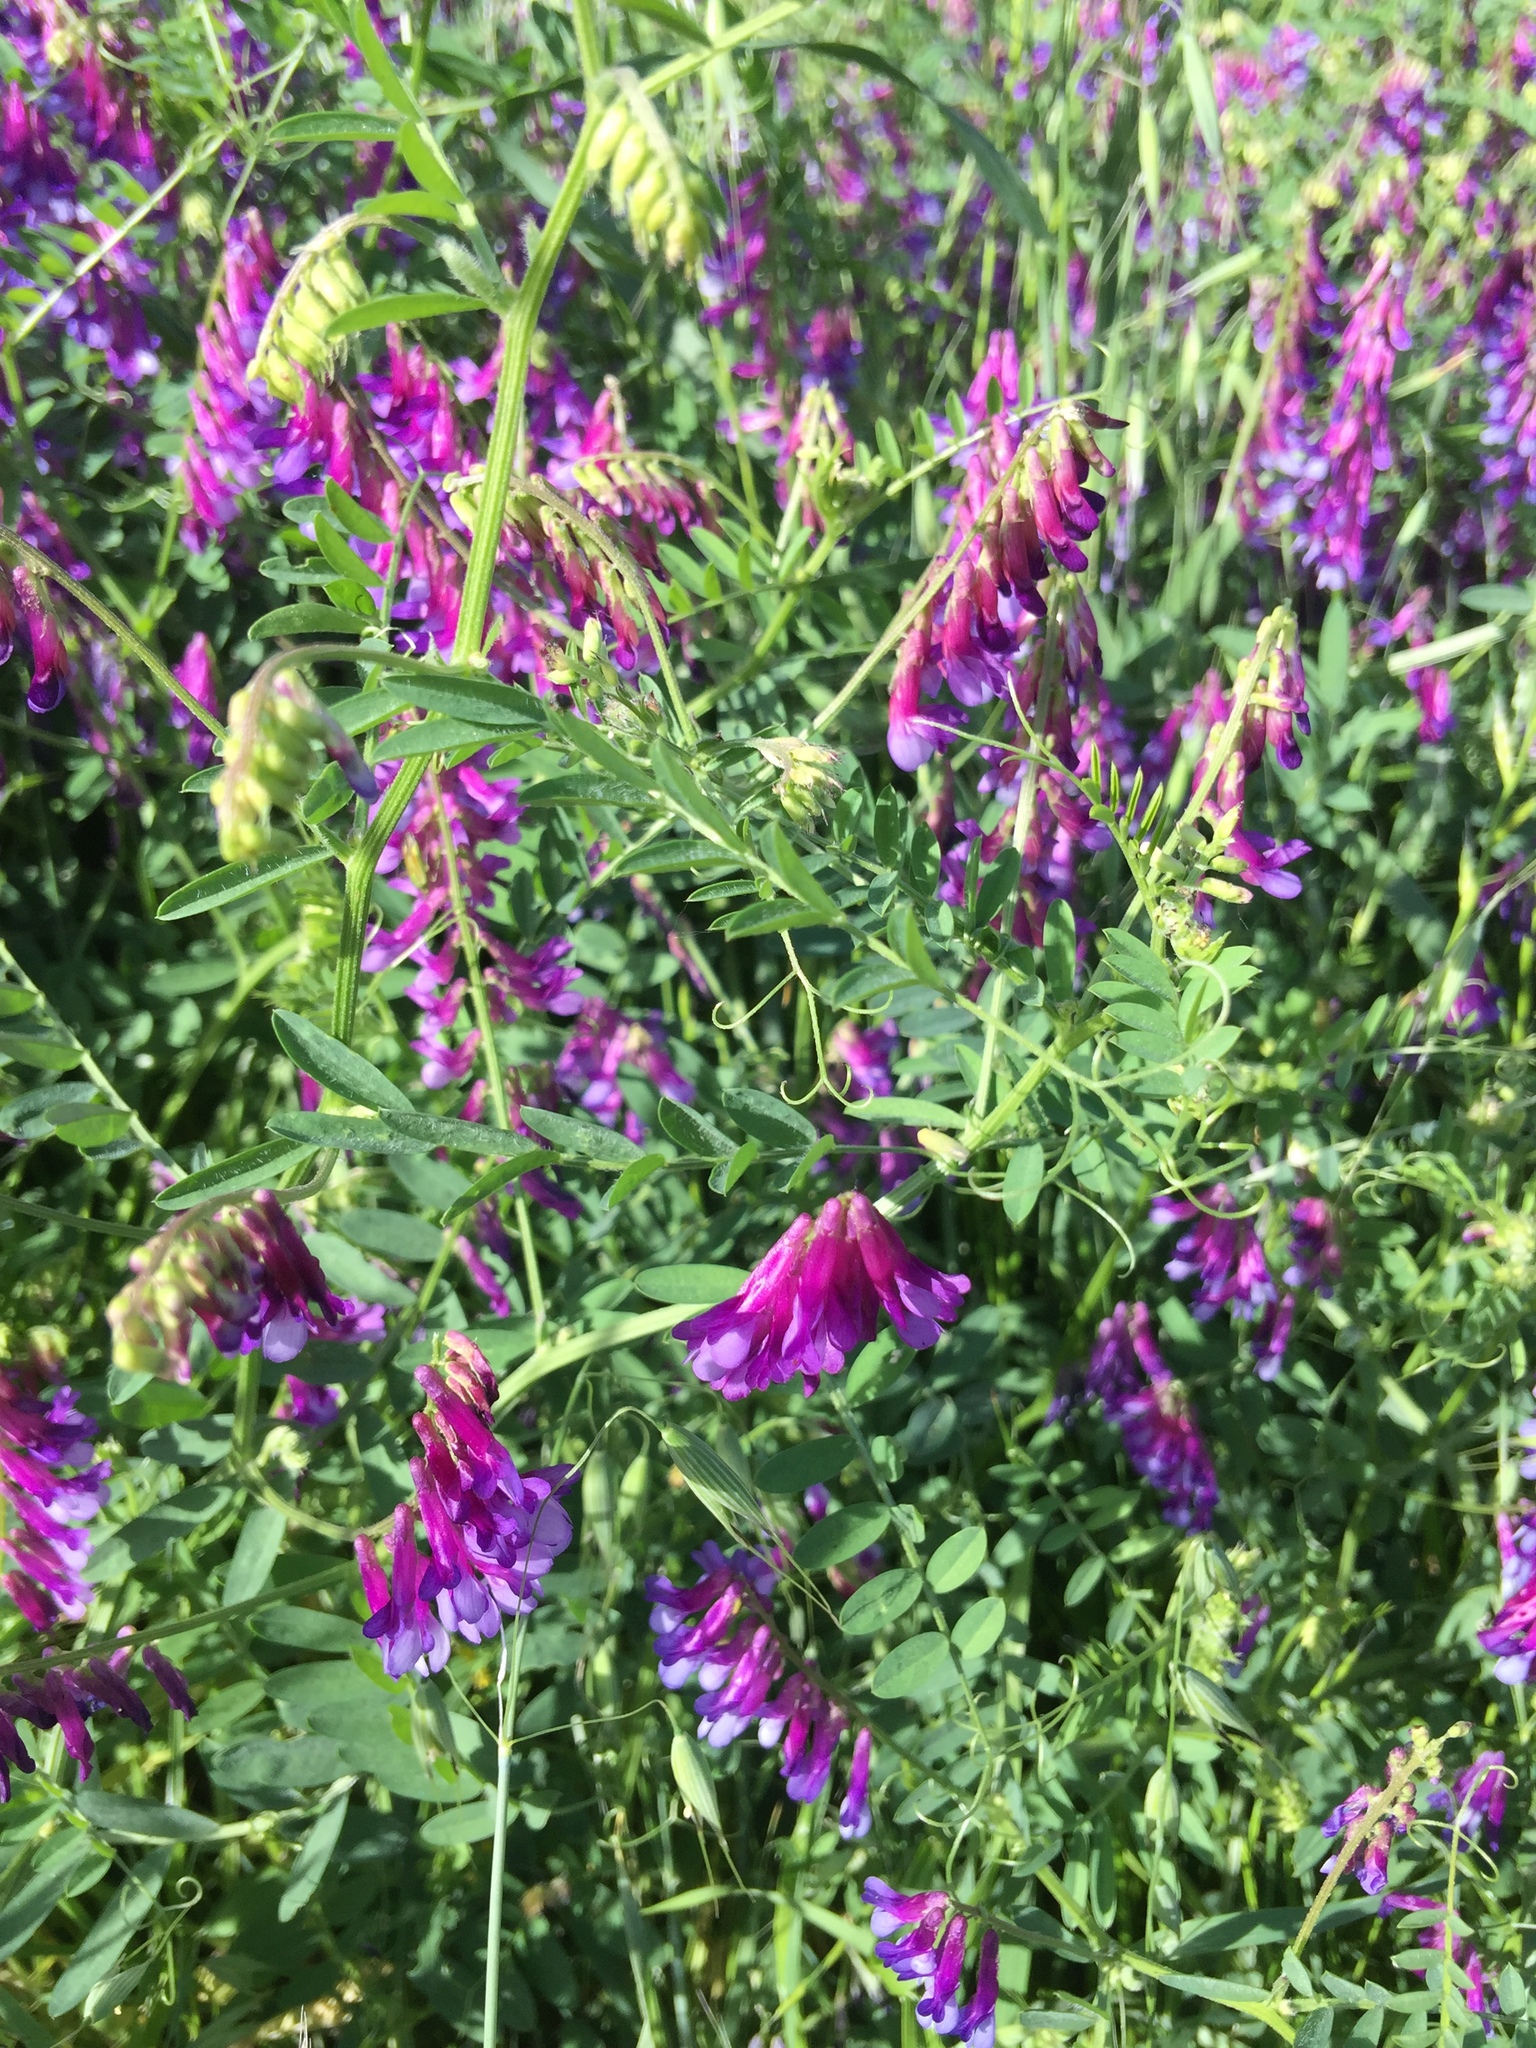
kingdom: Plantae
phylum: Tracheophyta
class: Magnoliopsida
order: Fabales
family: Fabaceae
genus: Vicia
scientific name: Vicia villosa
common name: Fodder vetch
